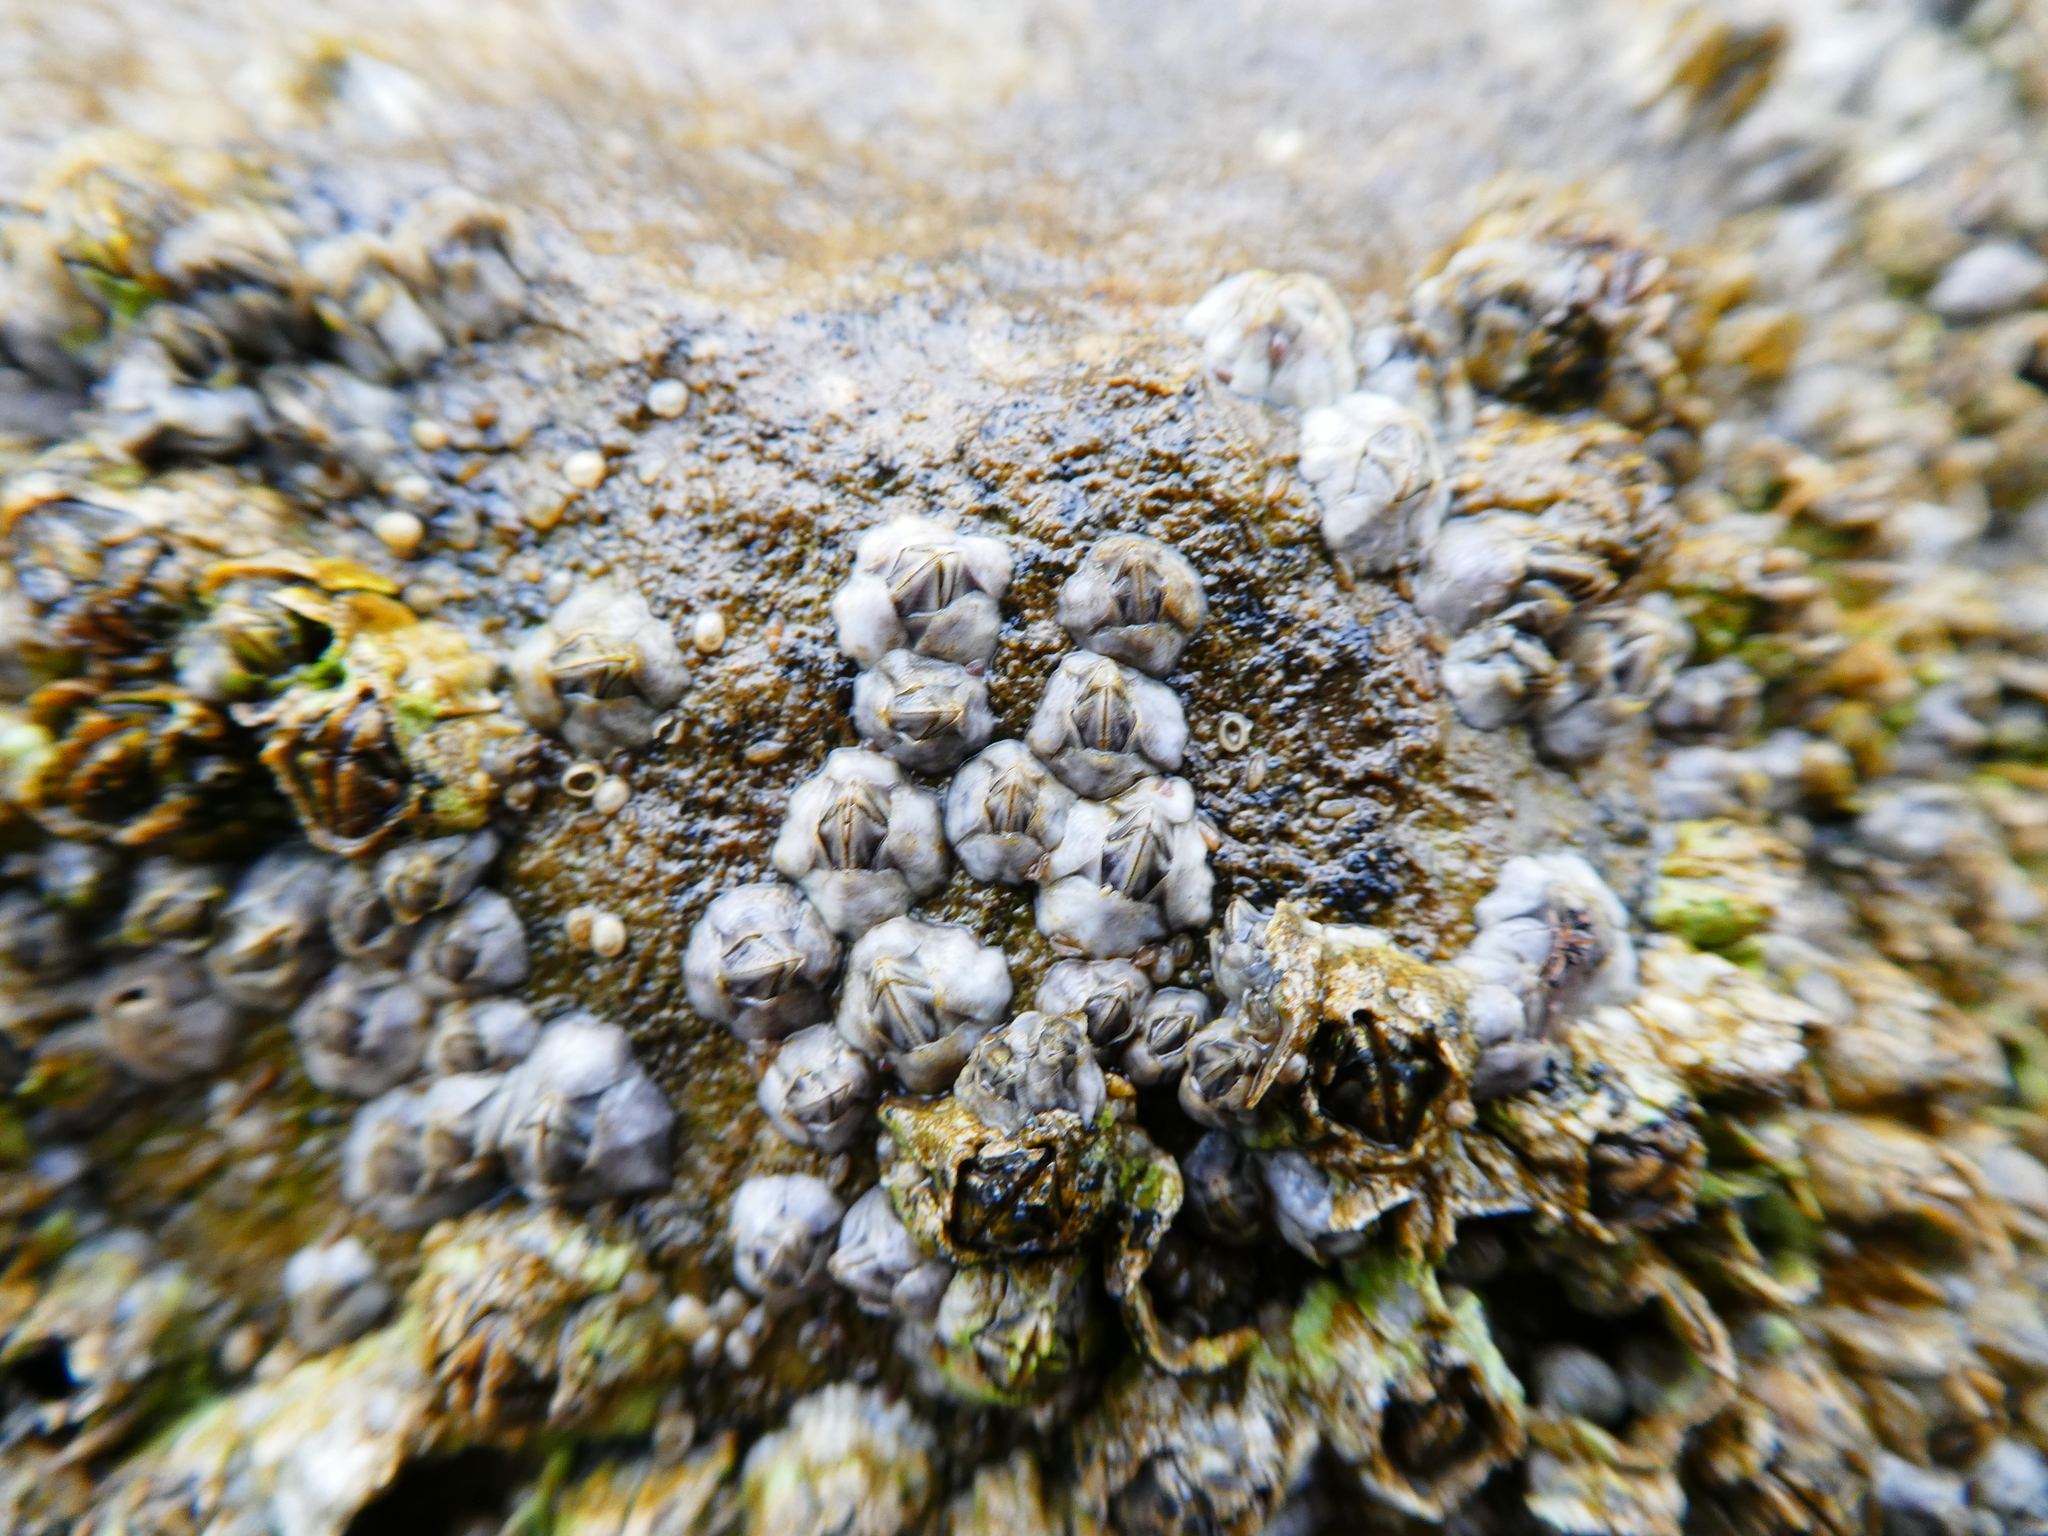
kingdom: Animalia
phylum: Arthropoda
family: Elminiidae
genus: Austrominius
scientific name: Austrominius modestus
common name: Australasian barnacle
